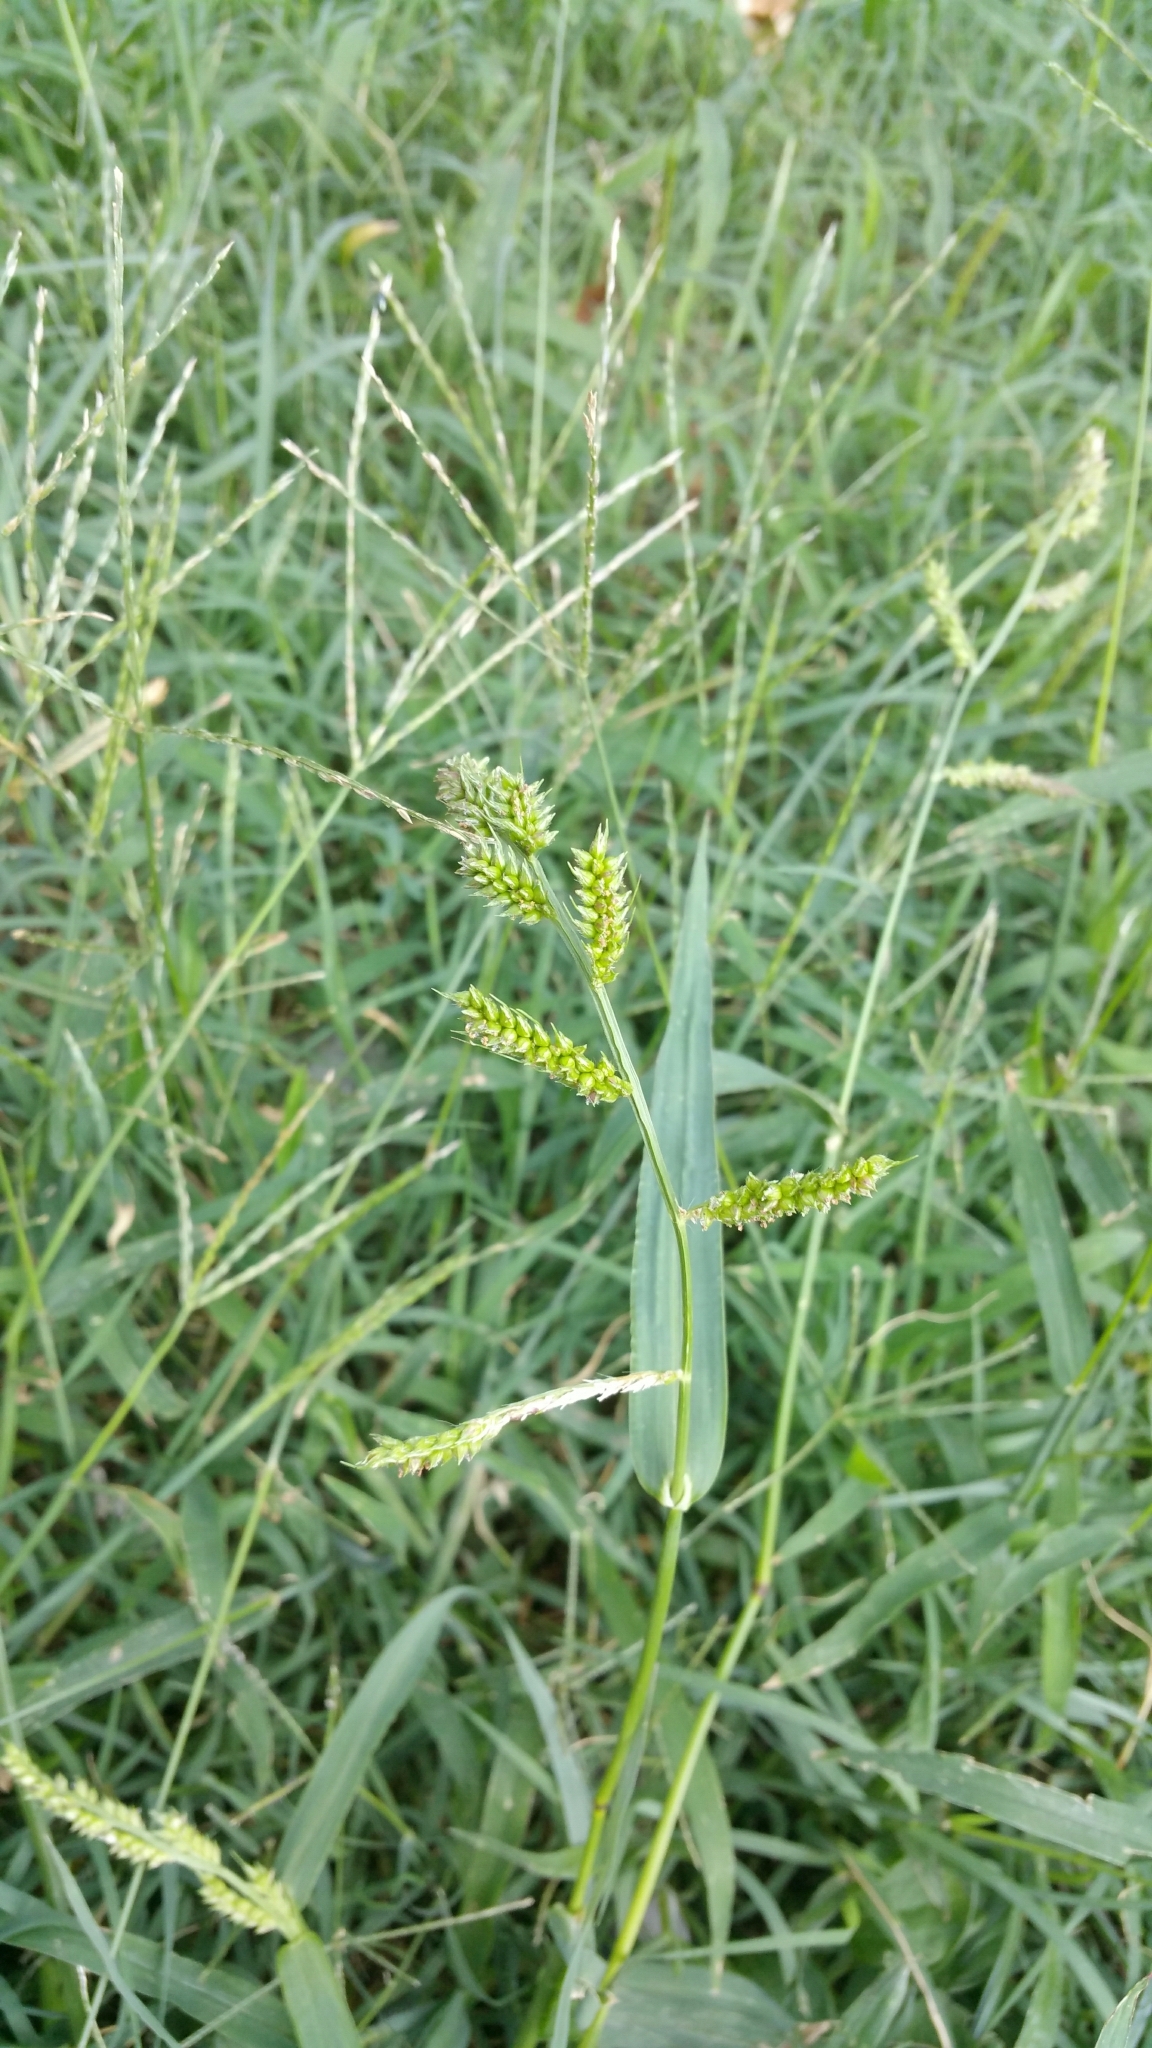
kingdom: Plantae
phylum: Tracheophyta
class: Liliopsida
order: Poales
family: Poaceae
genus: Echinochloa
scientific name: Echinochloa crus-galli
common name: Cockspur
